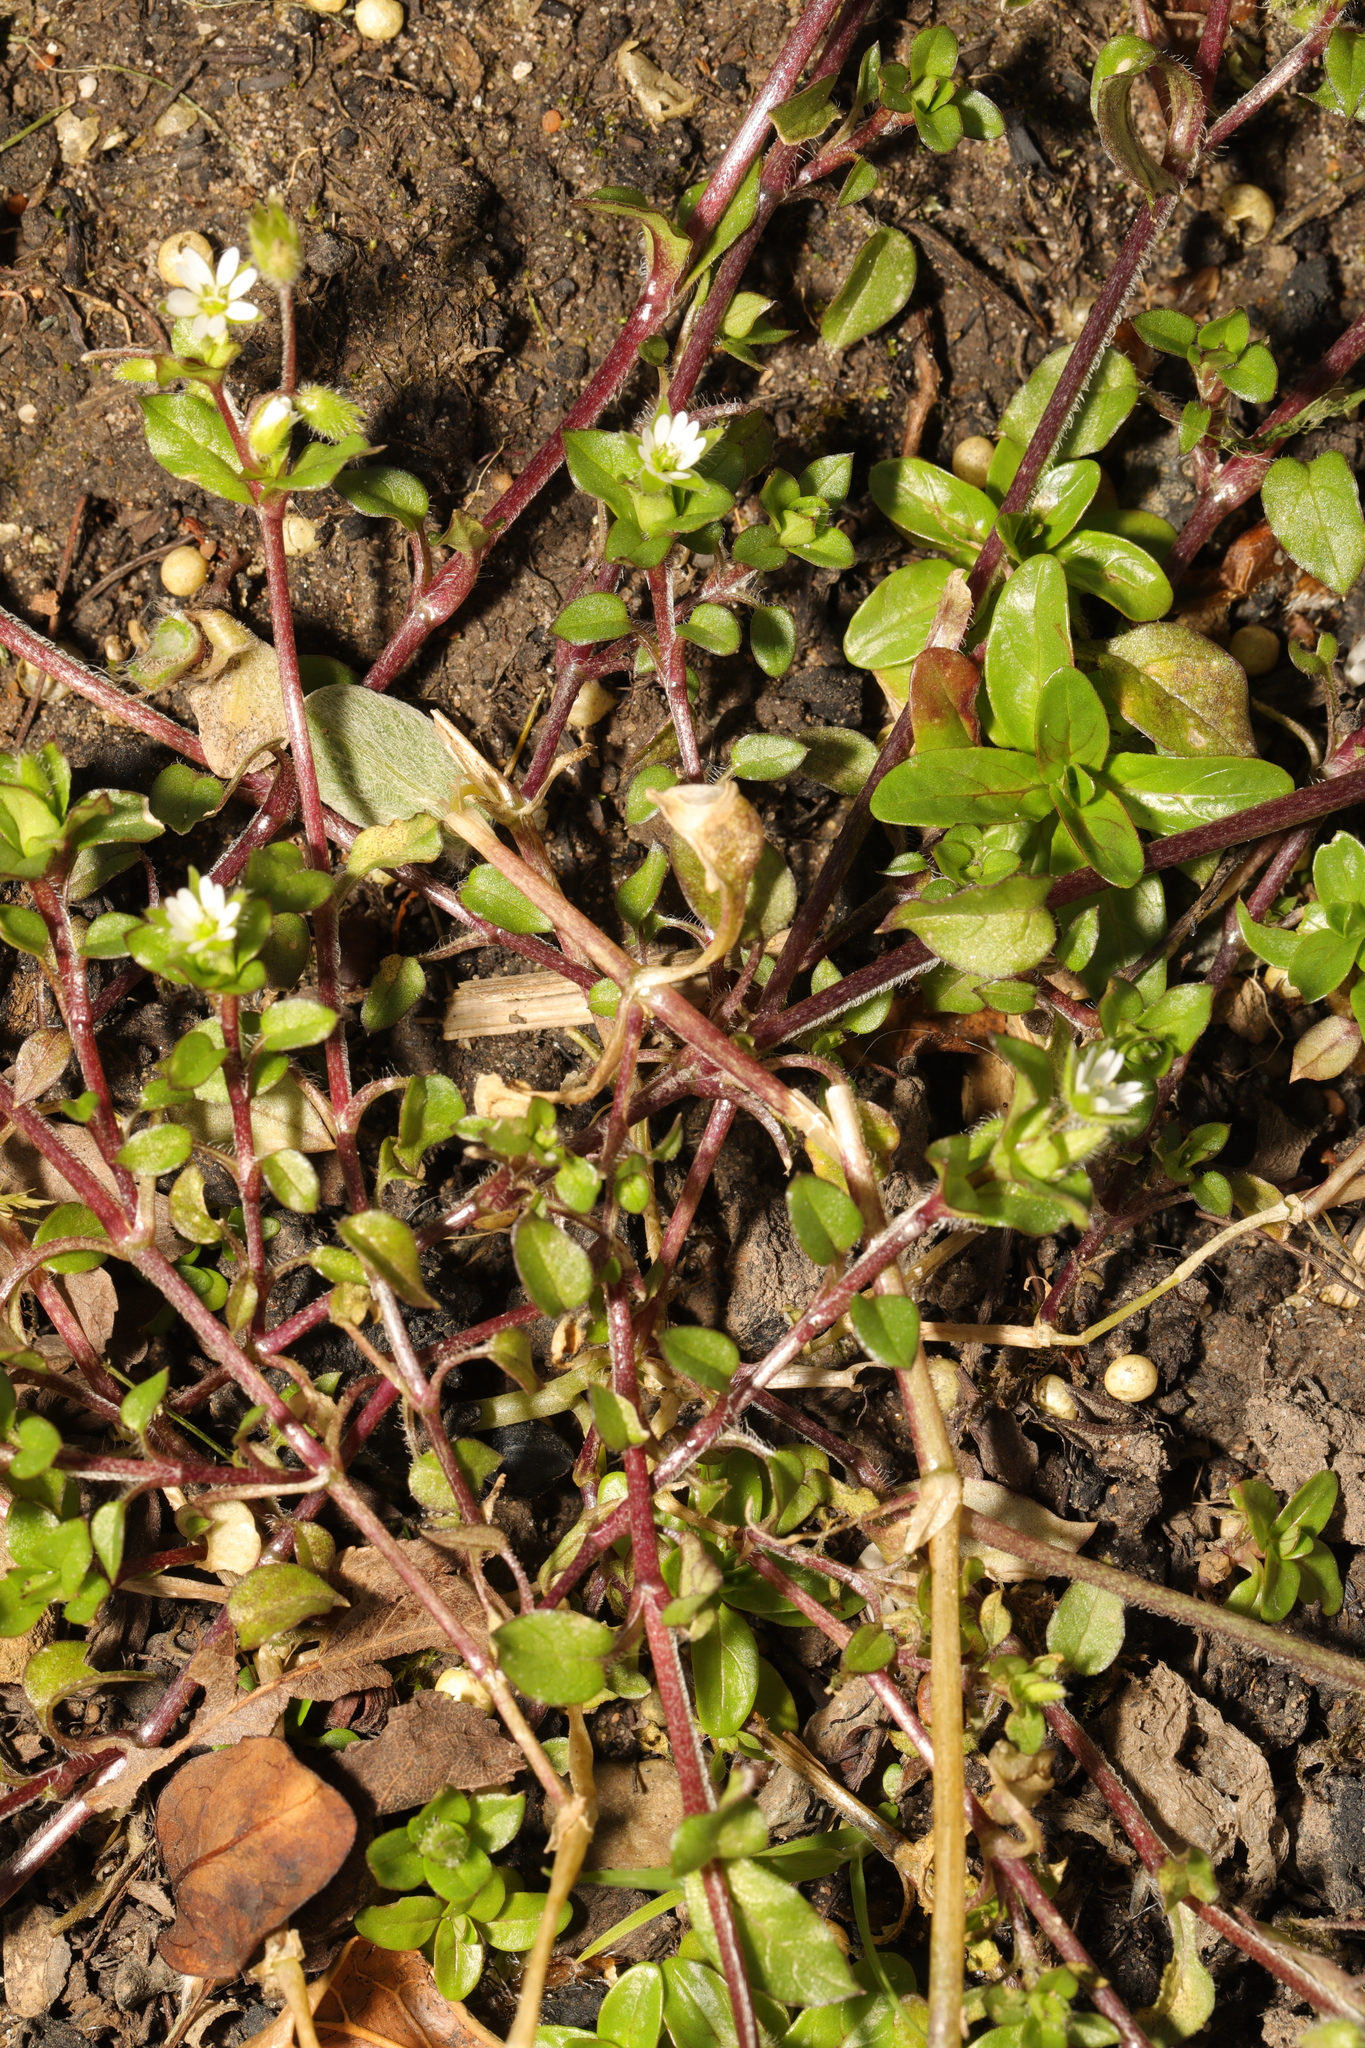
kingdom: Plantae
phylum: Tracheophyta
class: Magnoliopsida
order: Caryophyllales
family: Caryophyllaceae
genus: Stellaria
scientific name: Stellaria media
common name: Common chickweed
